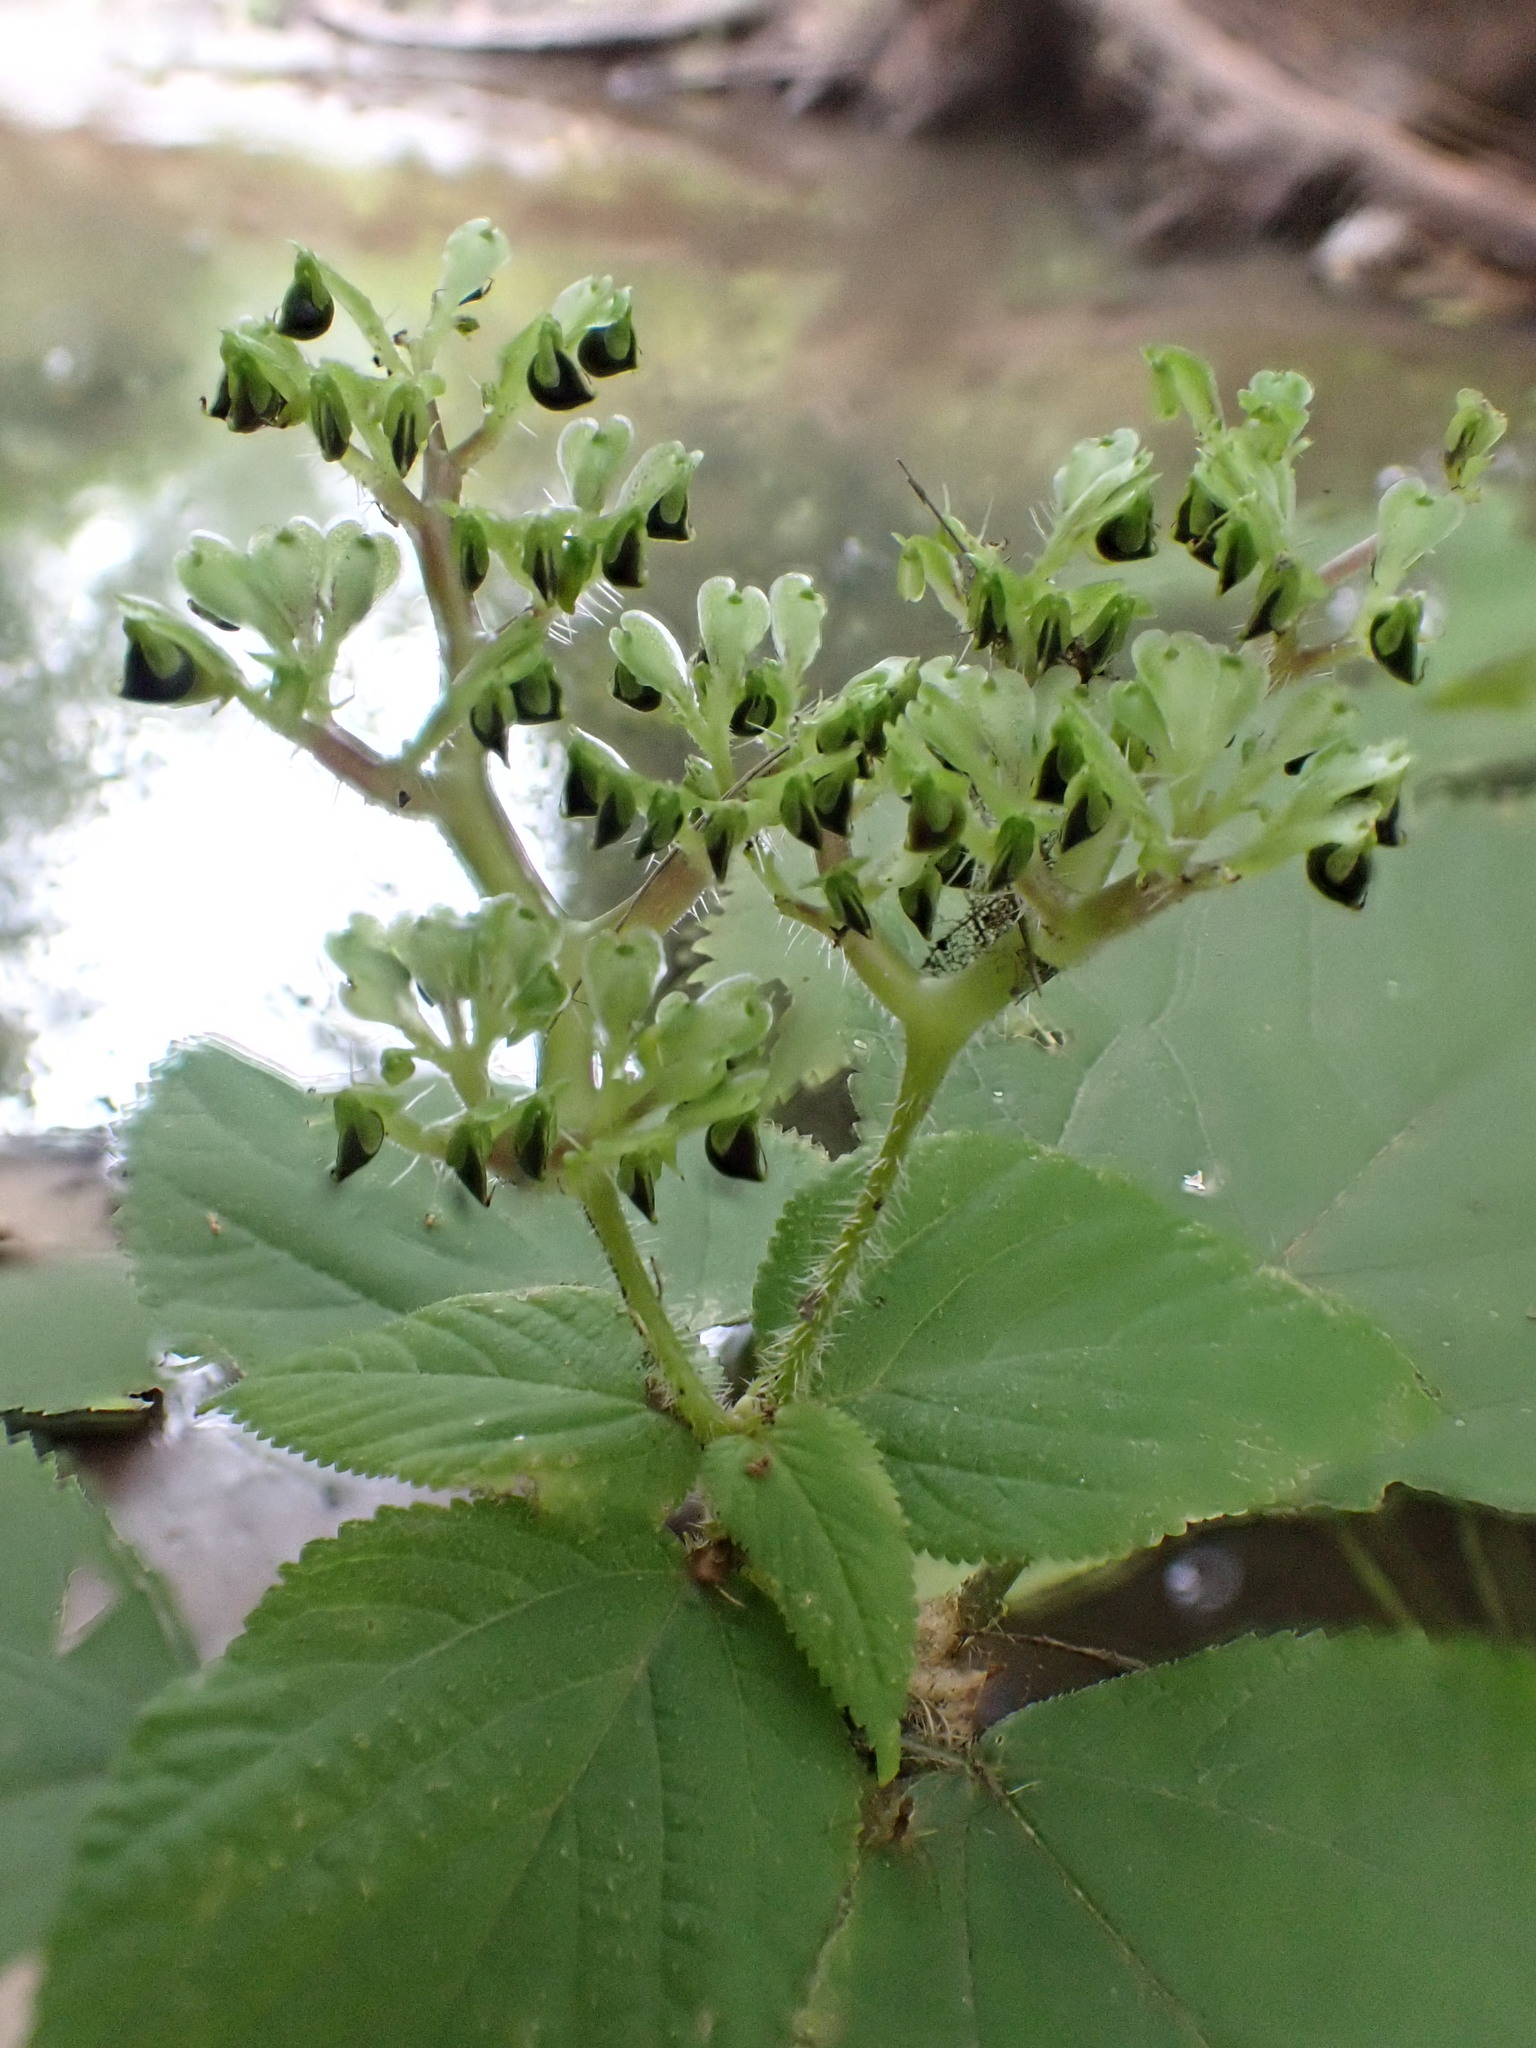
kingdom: Plantae
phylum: Tracheophyta
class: Magnoliopsida
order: Rosales
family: Urticaceae
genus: Laportea
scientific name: Laportea canadensis
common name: Canada nettle
